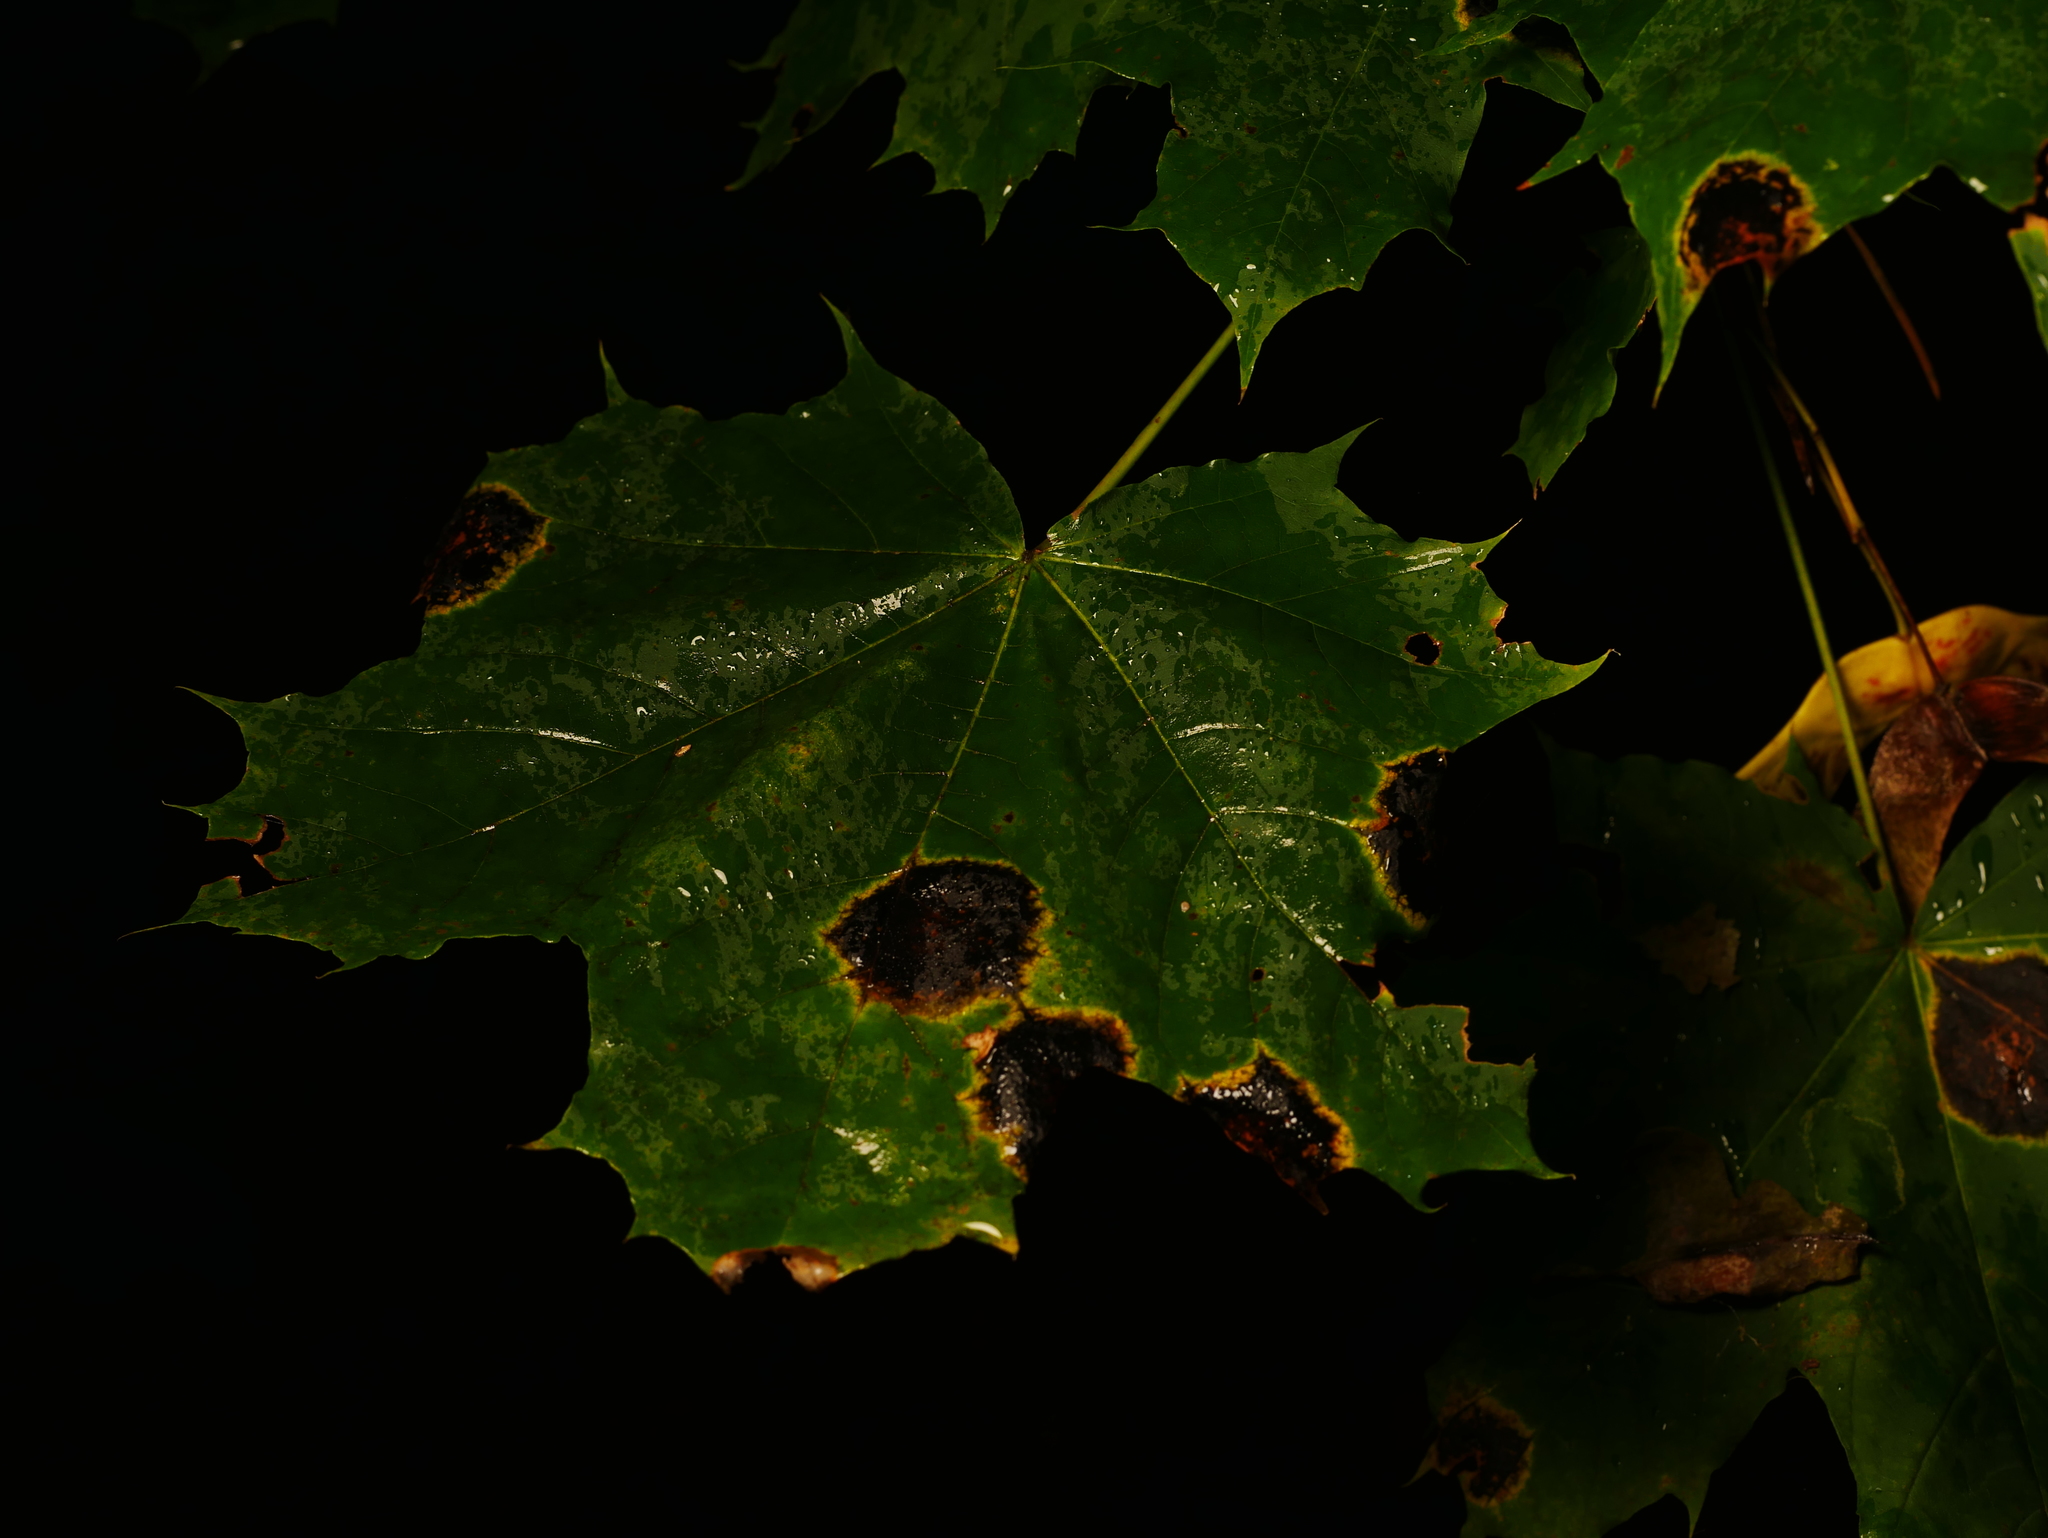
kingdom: Plantae
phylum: Tracheophyta
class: Magnoliopsida
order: Sapindales
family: Sapindaceae
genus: Acer
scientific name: Acer platanoides
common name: Norway maple
